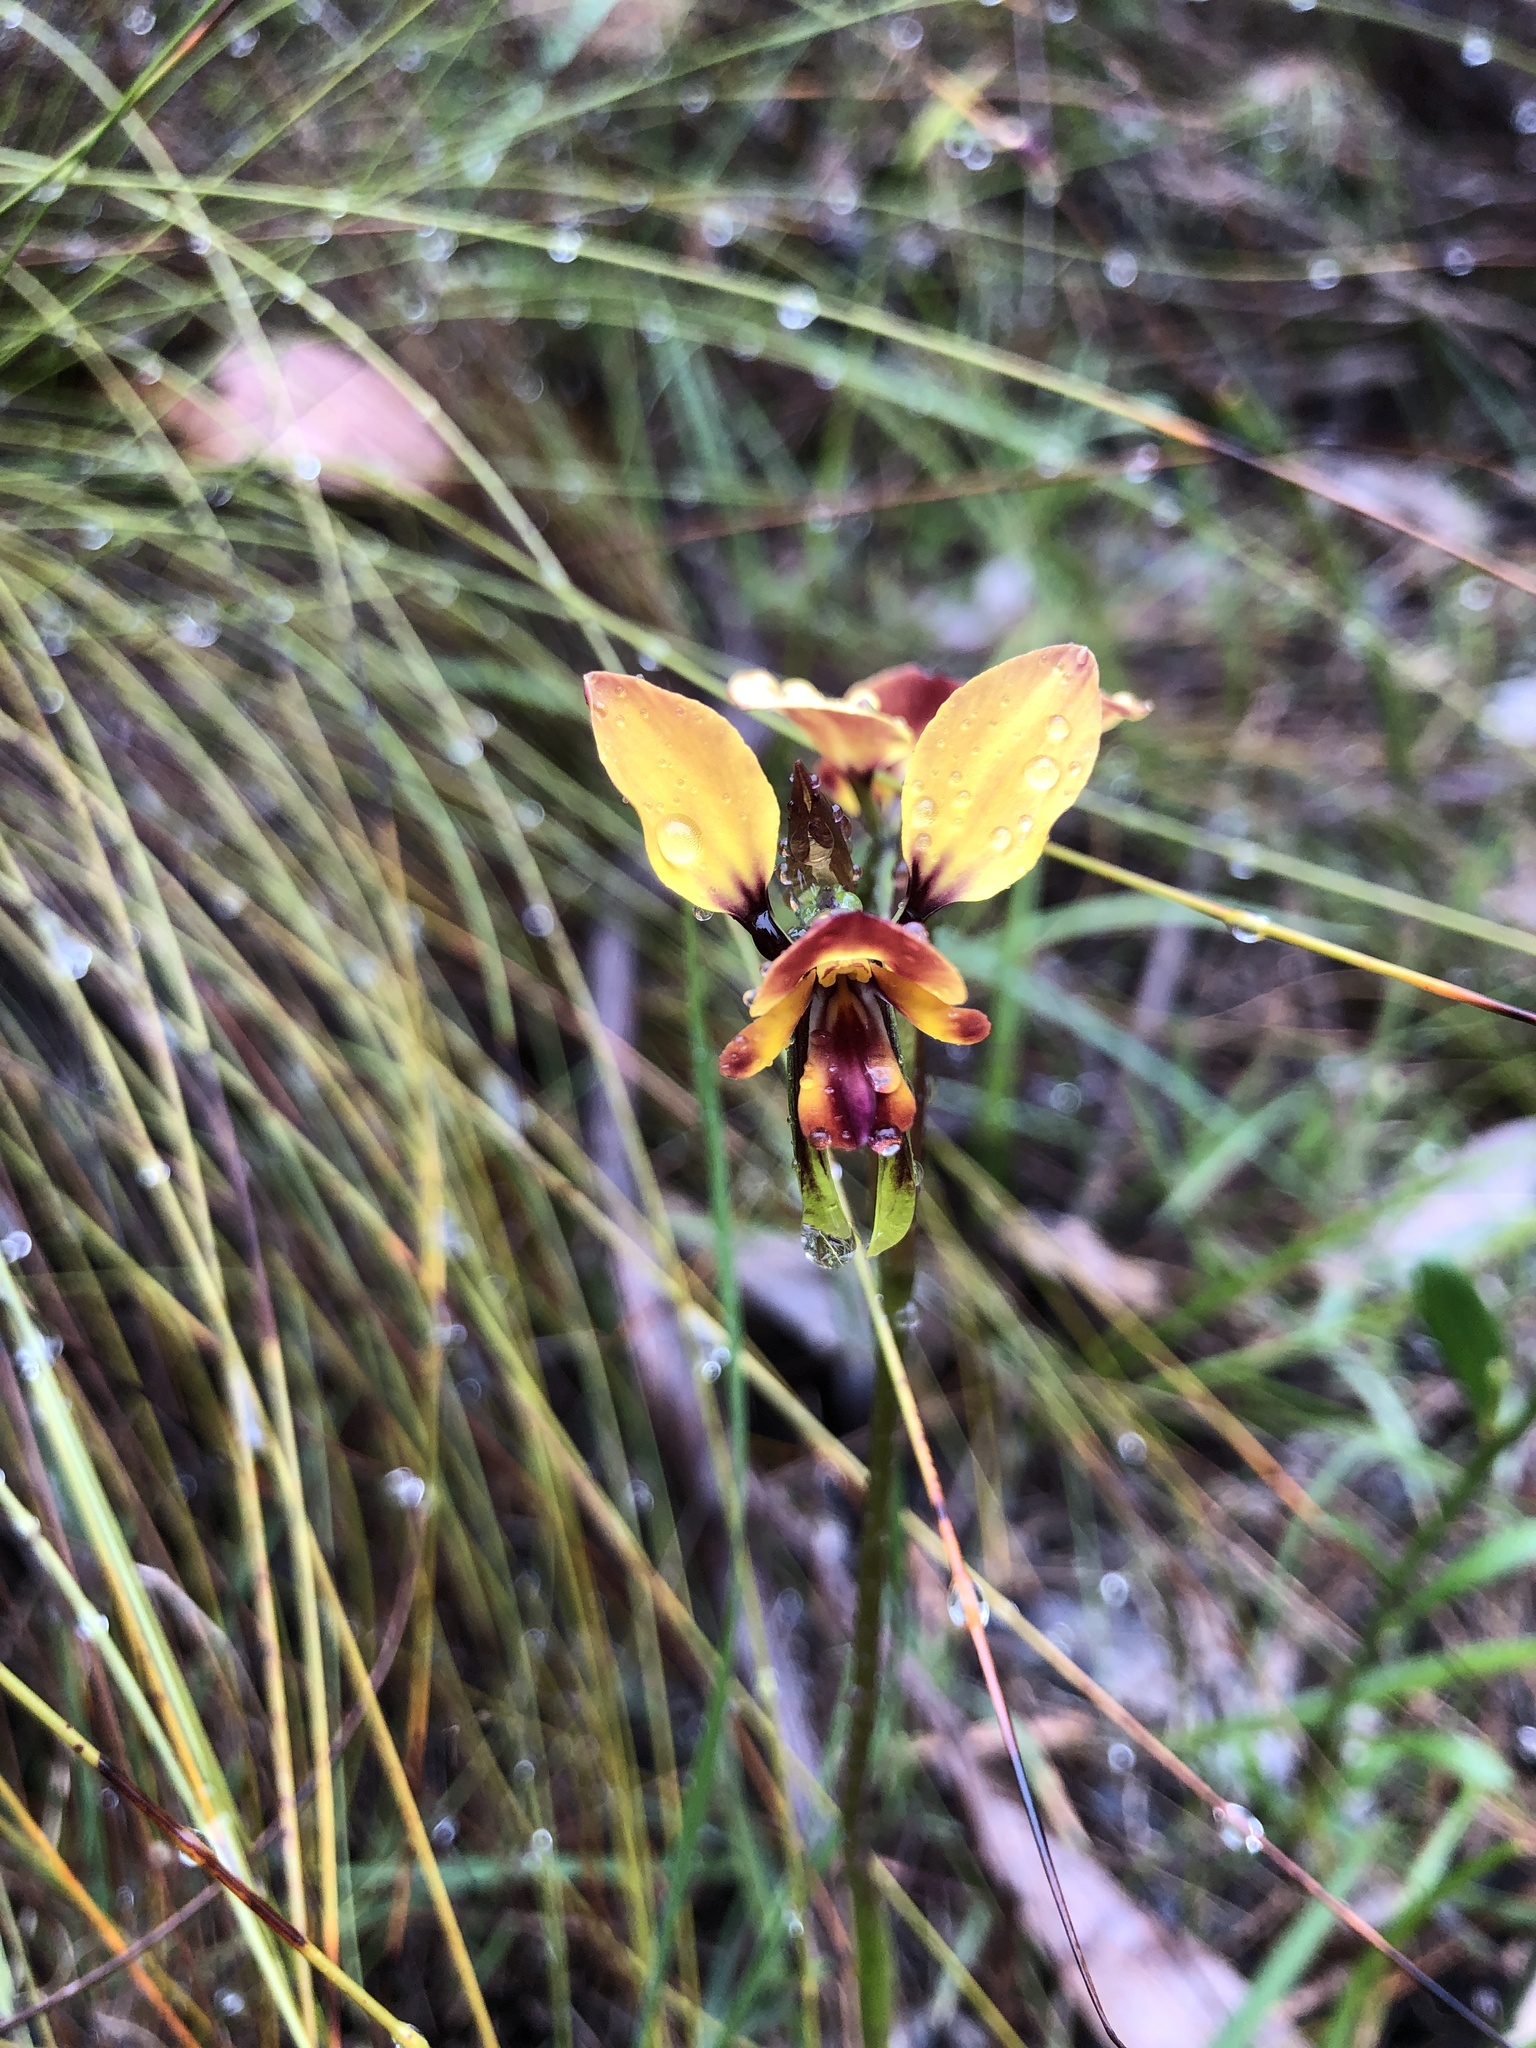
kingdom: Plantae
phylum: Tracheophyta
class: Liliopsida
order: Asparagales
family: Orchidaceae
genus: Diuris
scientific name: Diuris orientis
